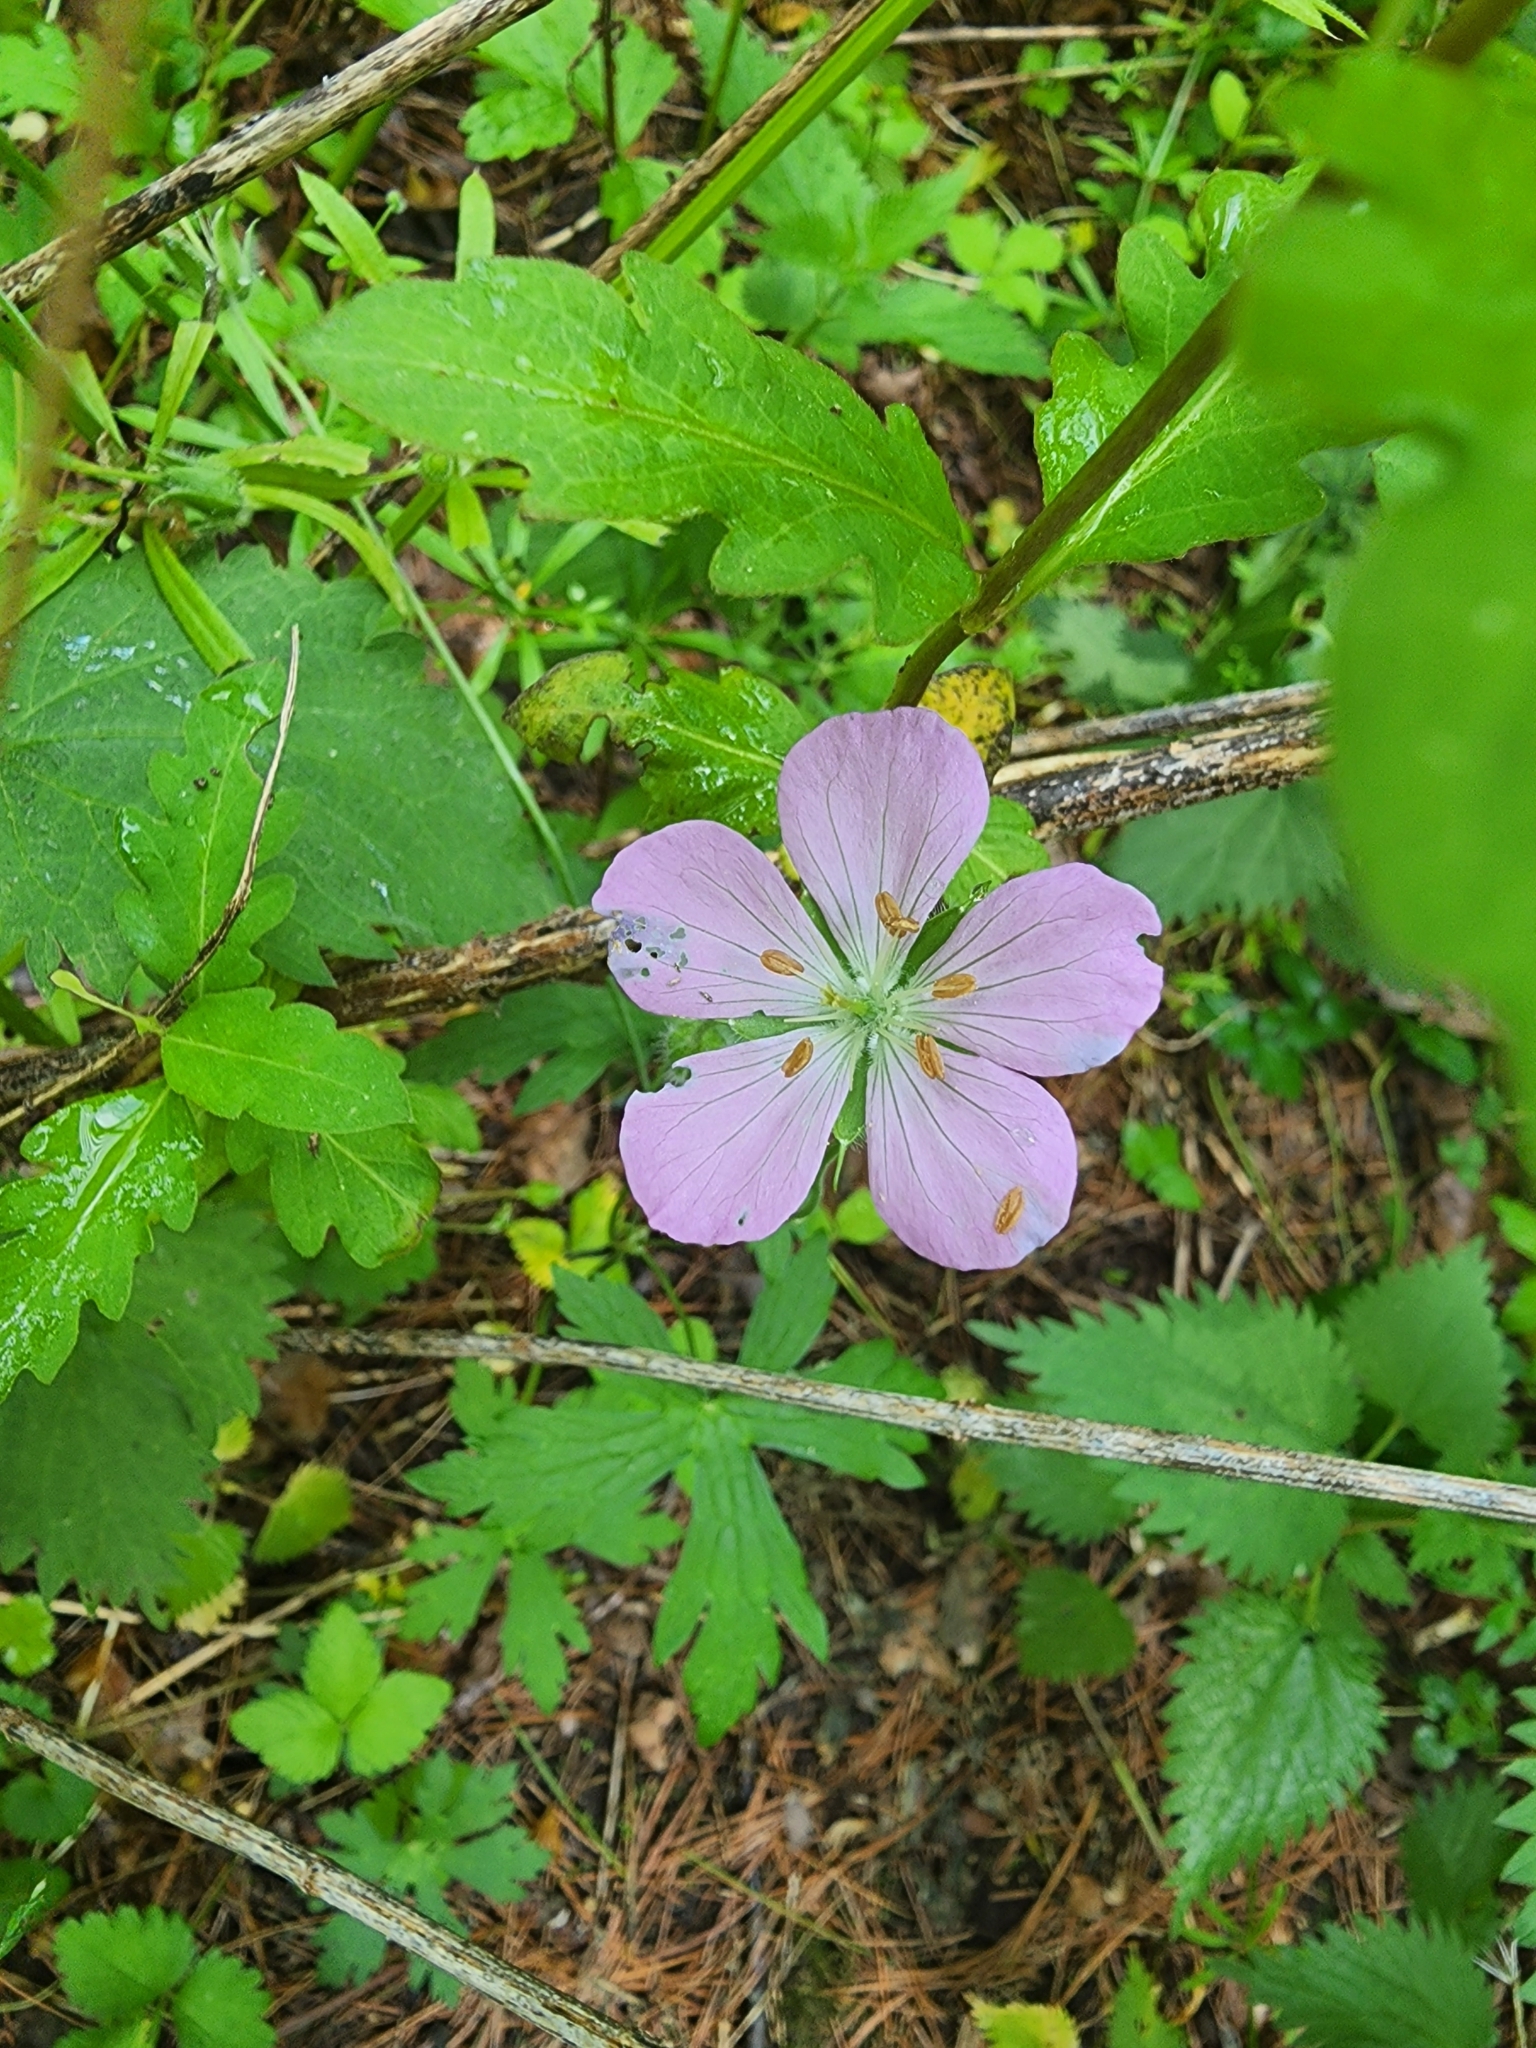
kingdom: Plantae
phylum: Tracheophyta
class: Magnoliopsida
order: Geraniales
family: Geraniaceae
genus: Geranium
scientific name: Geranium maculatum
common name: Spotted geranium
